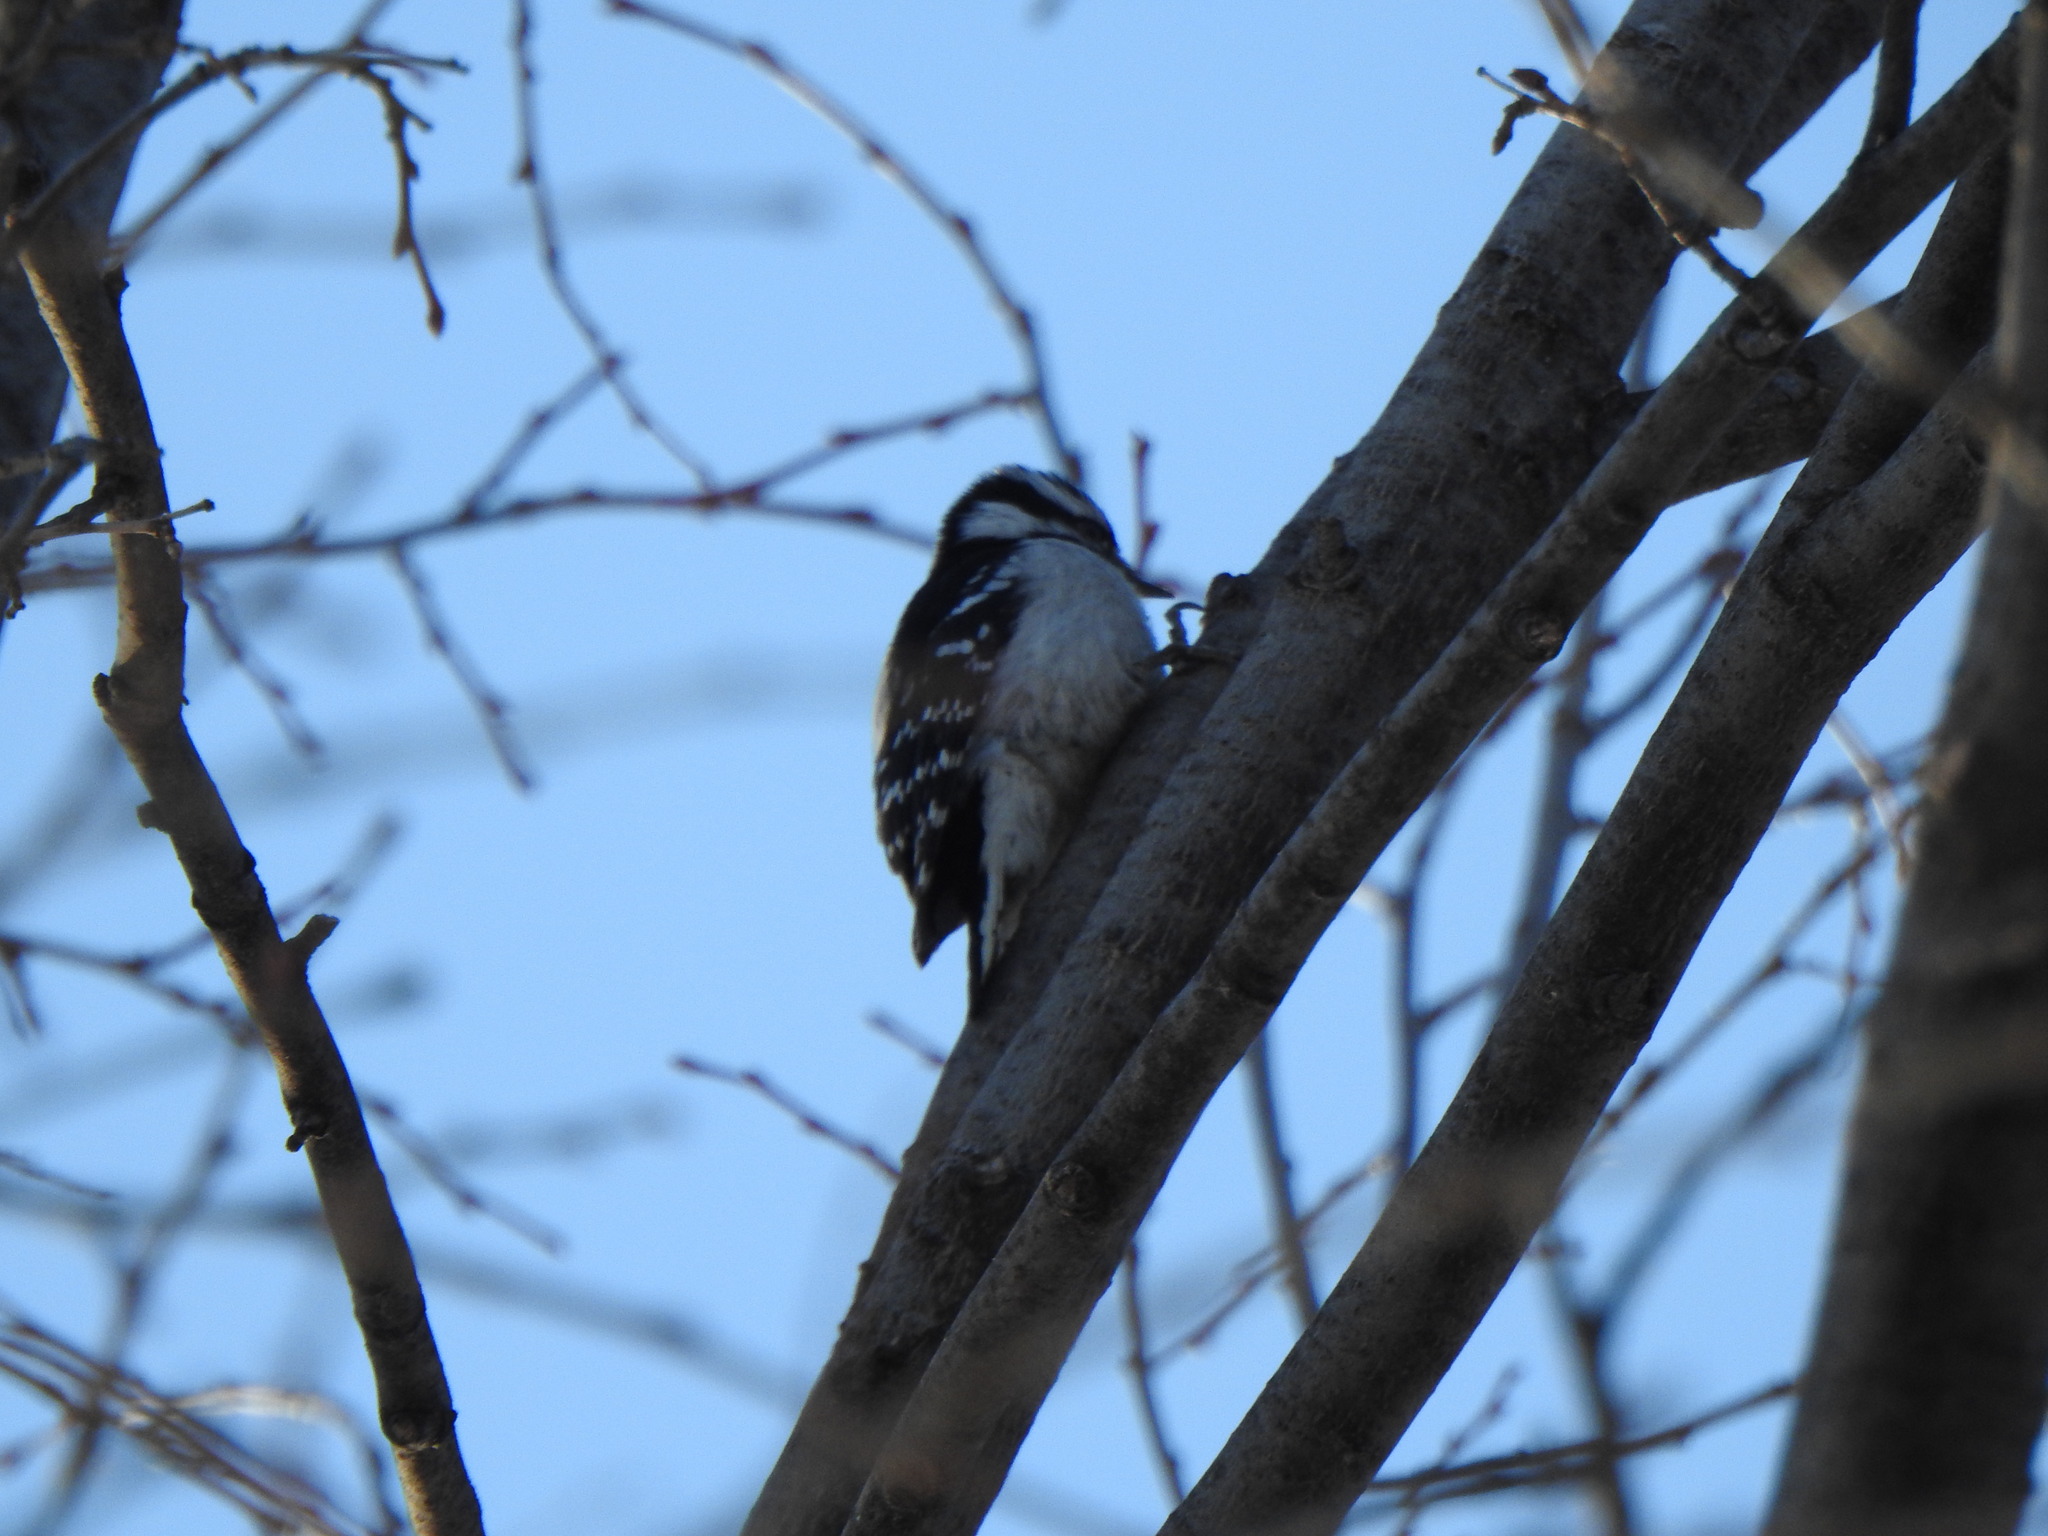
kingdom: Animalia
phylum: Chordata
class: Aves
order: Piciformes
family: Picidae
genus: Dryobates
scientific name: Dryobates pubescens
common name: Downy woodpecker
